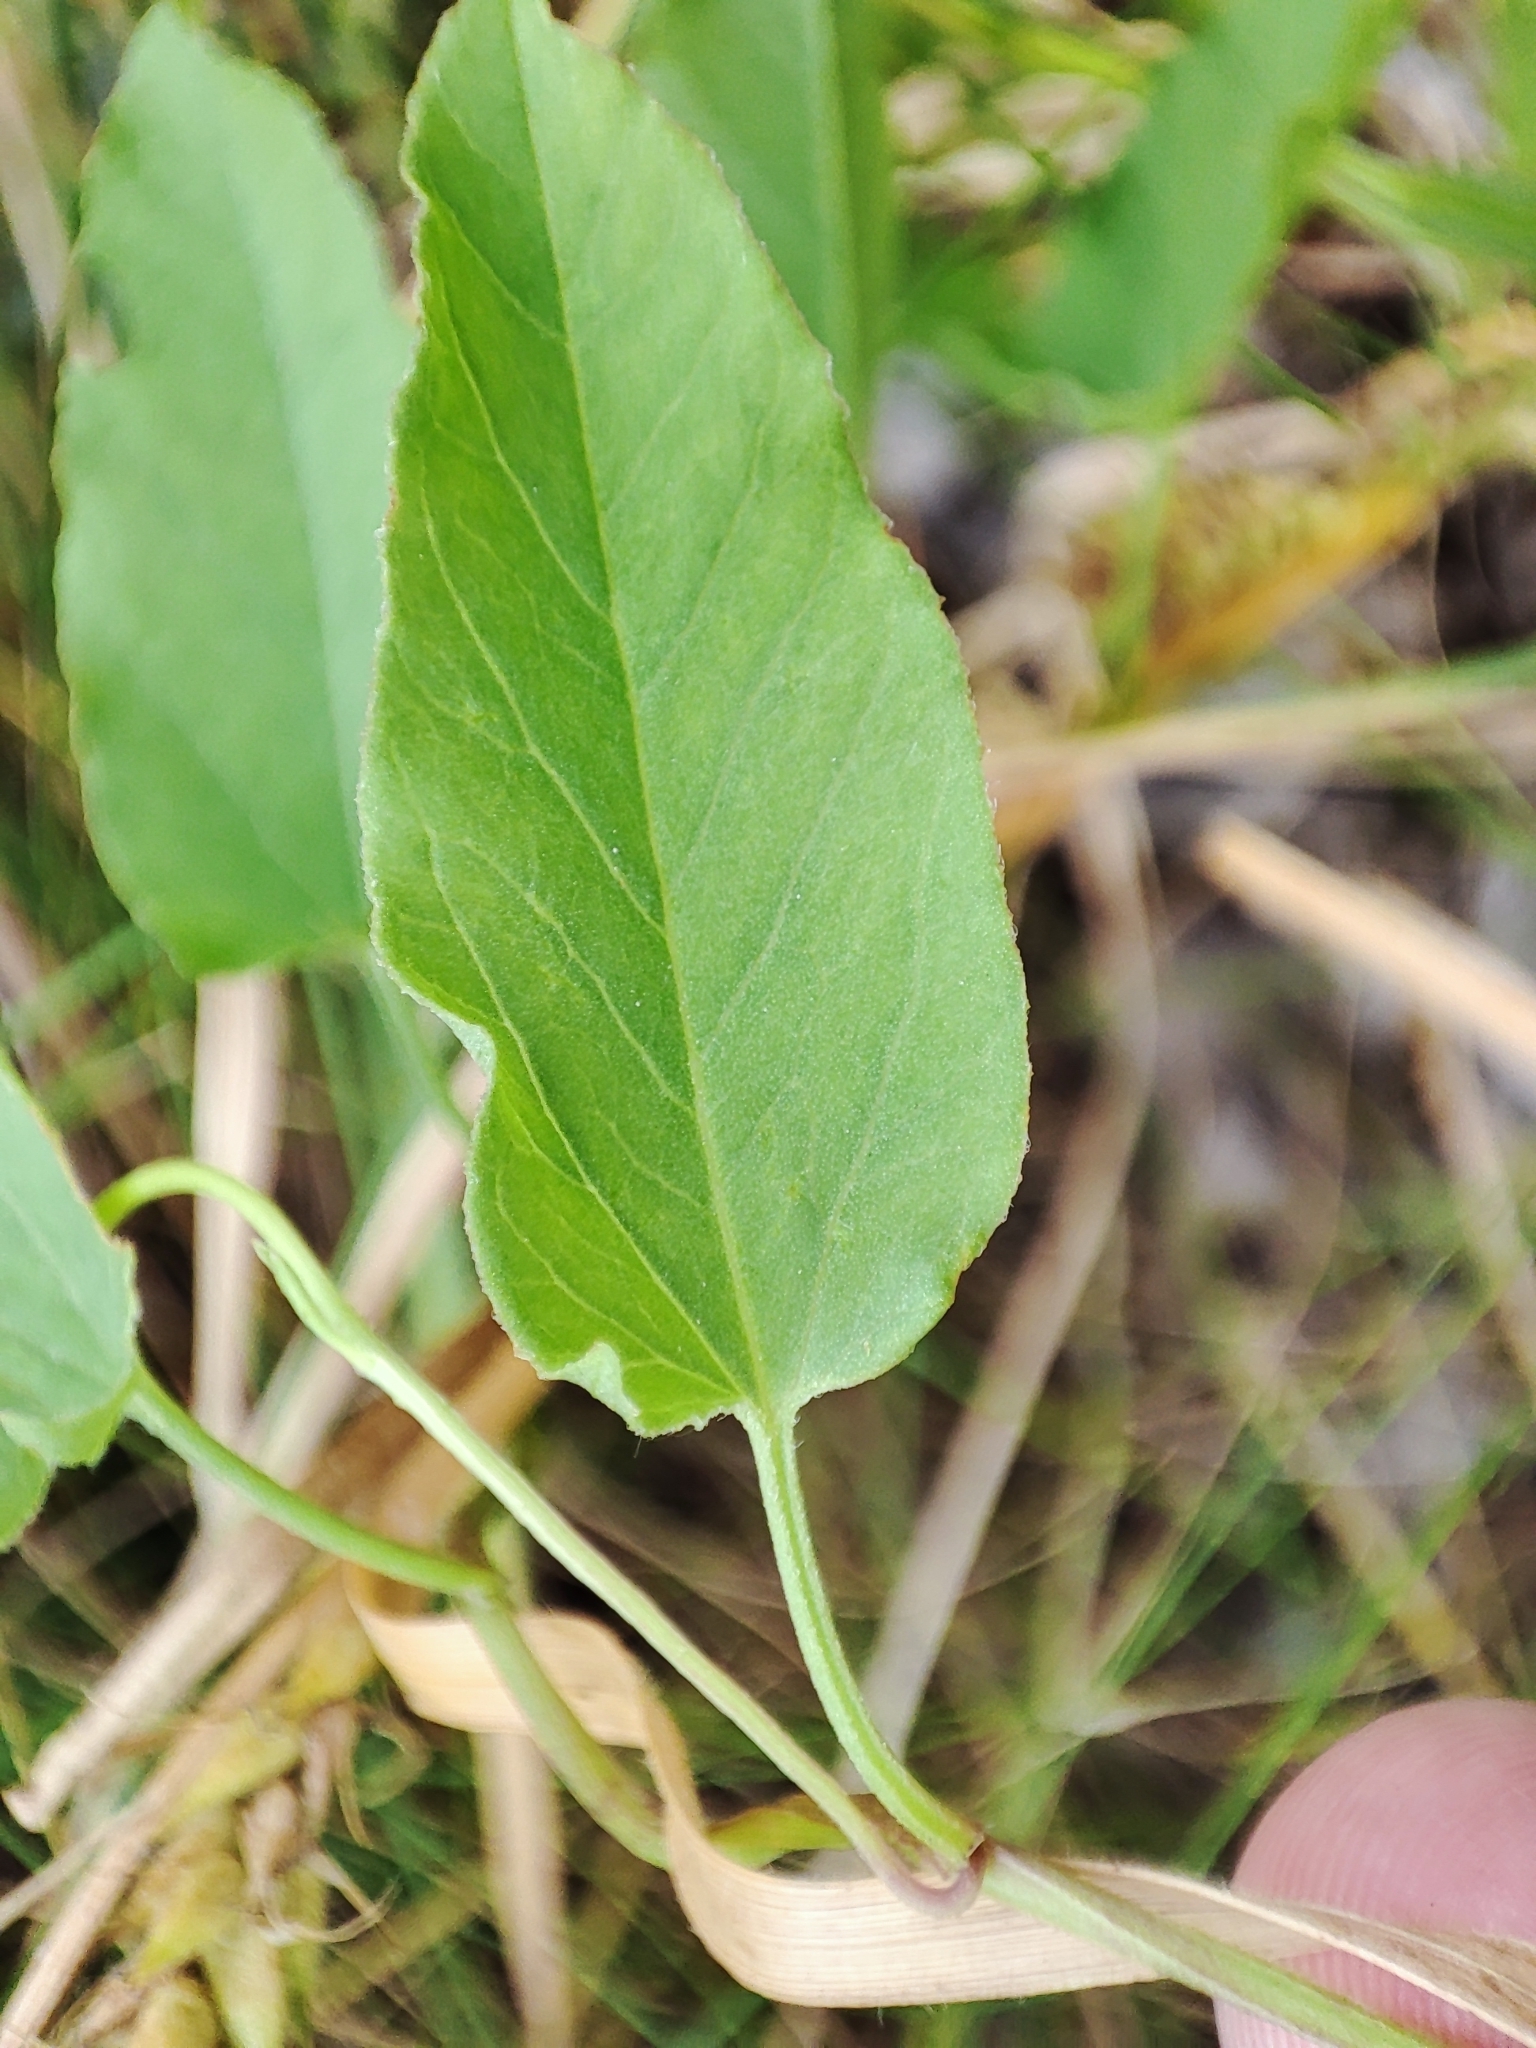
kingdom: Plantae
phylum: Tracheophyta
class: Magnoliopsida
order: Solanales
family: Convolvulaceae
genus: Convolvulus
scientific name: Convolvulus arvensis
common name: Field bindweed
